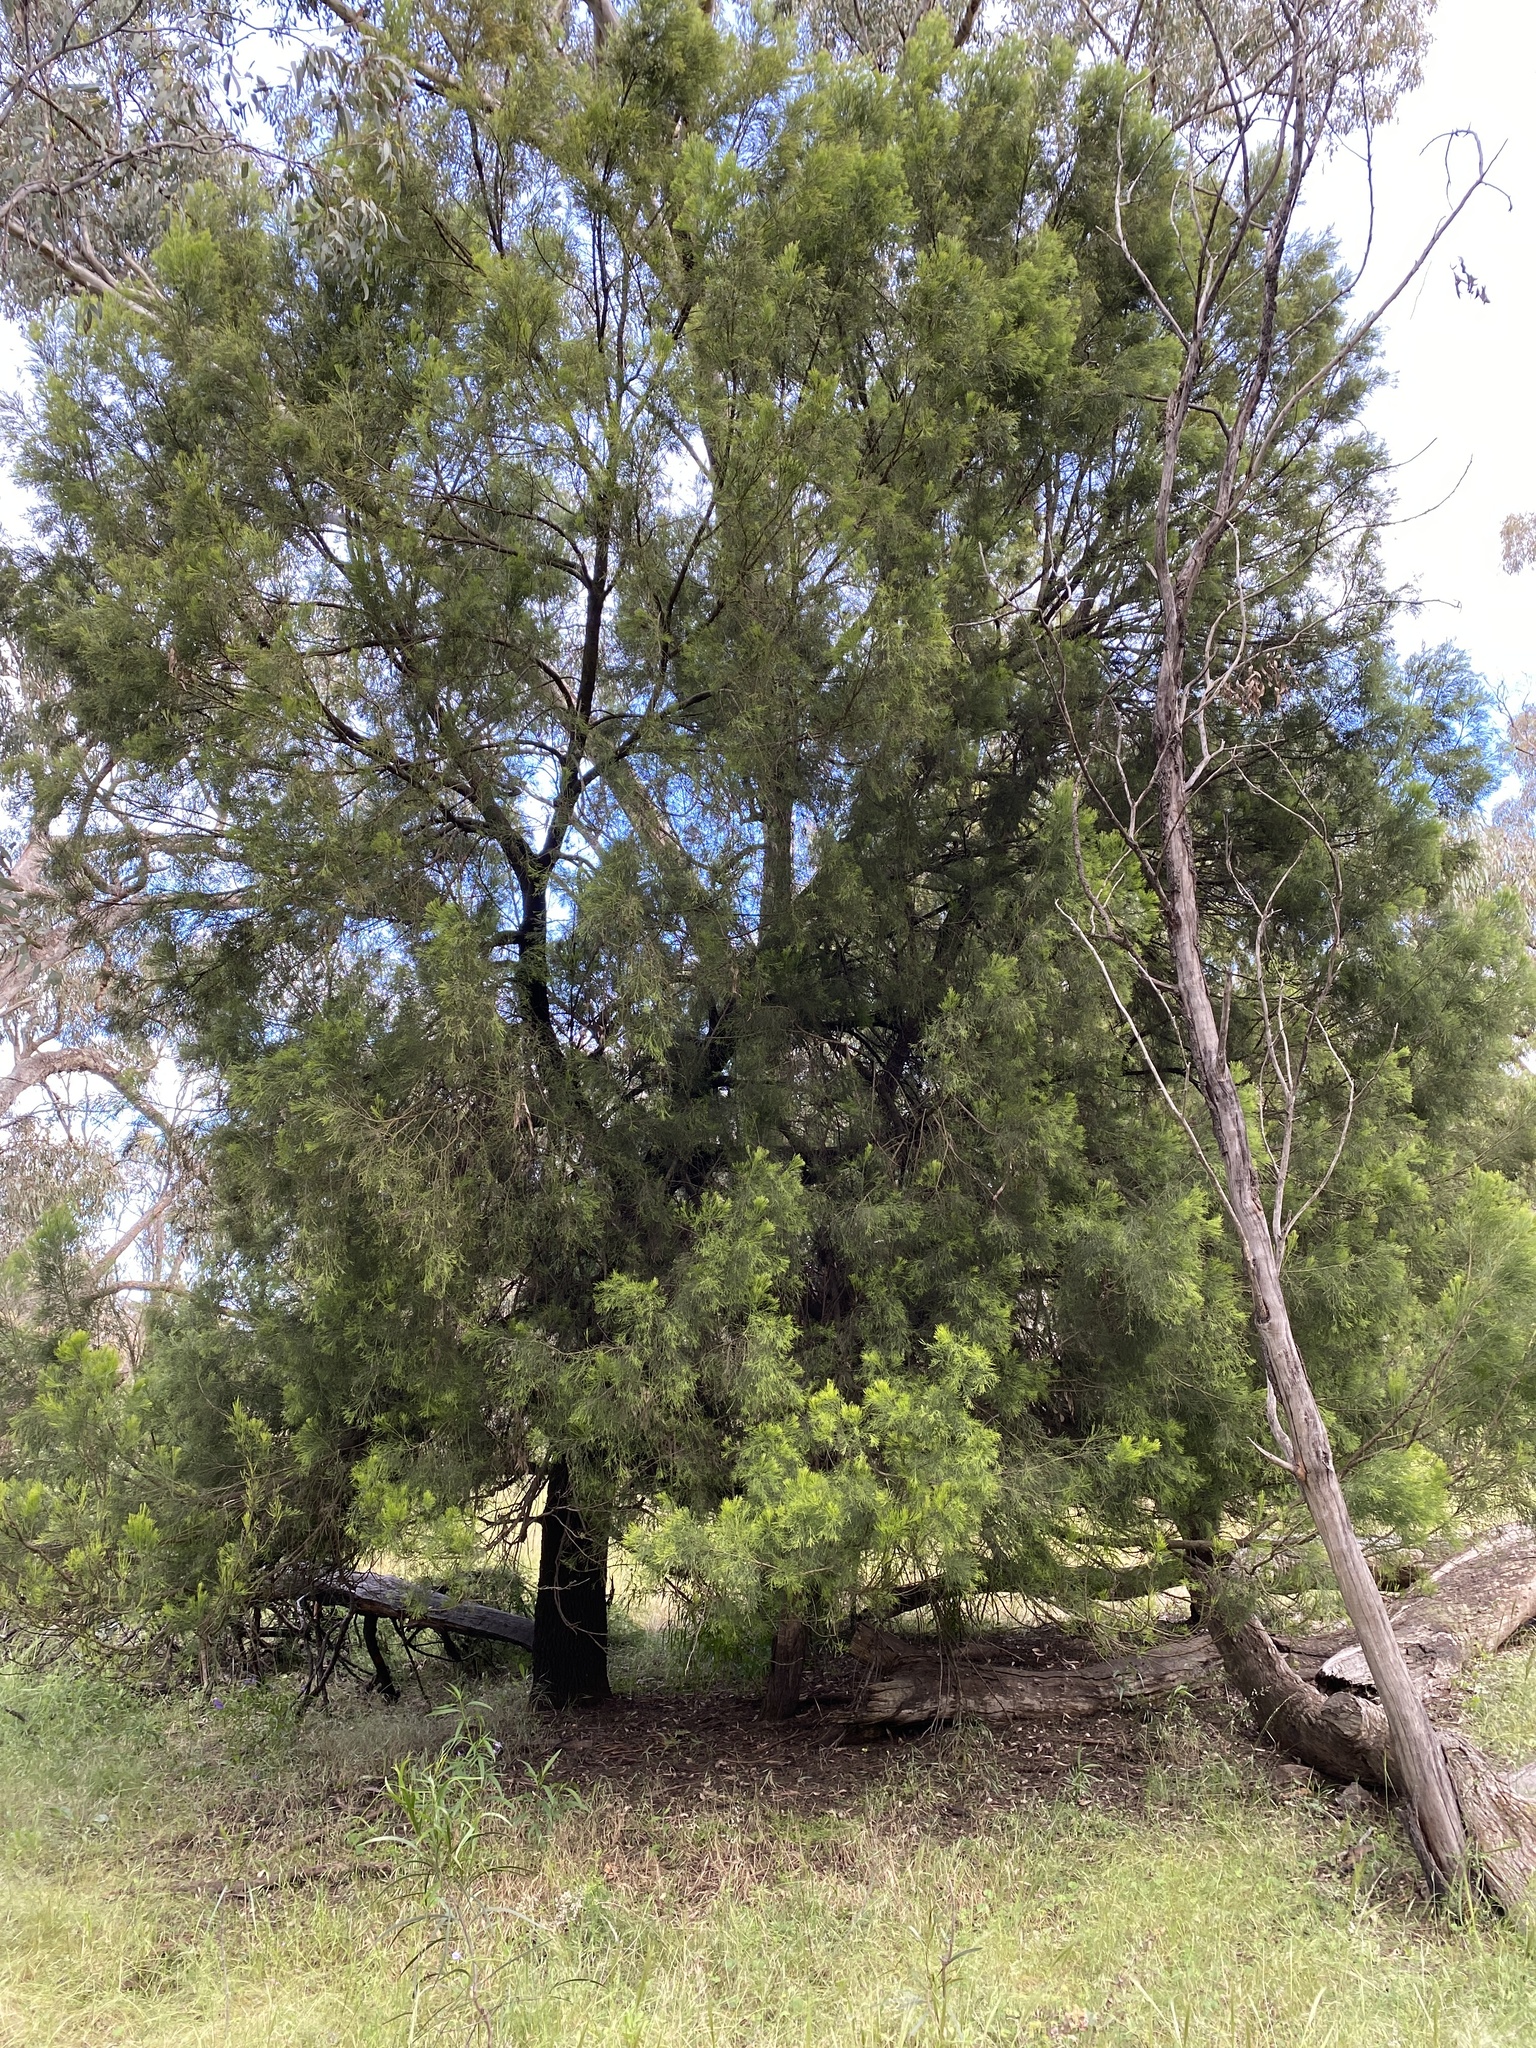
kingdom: Plantae
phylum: Tracheophyta
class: Magnoliopsida
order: Santalales
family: Santalaceae
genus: Exocarpos
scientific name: Exocarpos cupressiformis
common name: Cherry ballart
